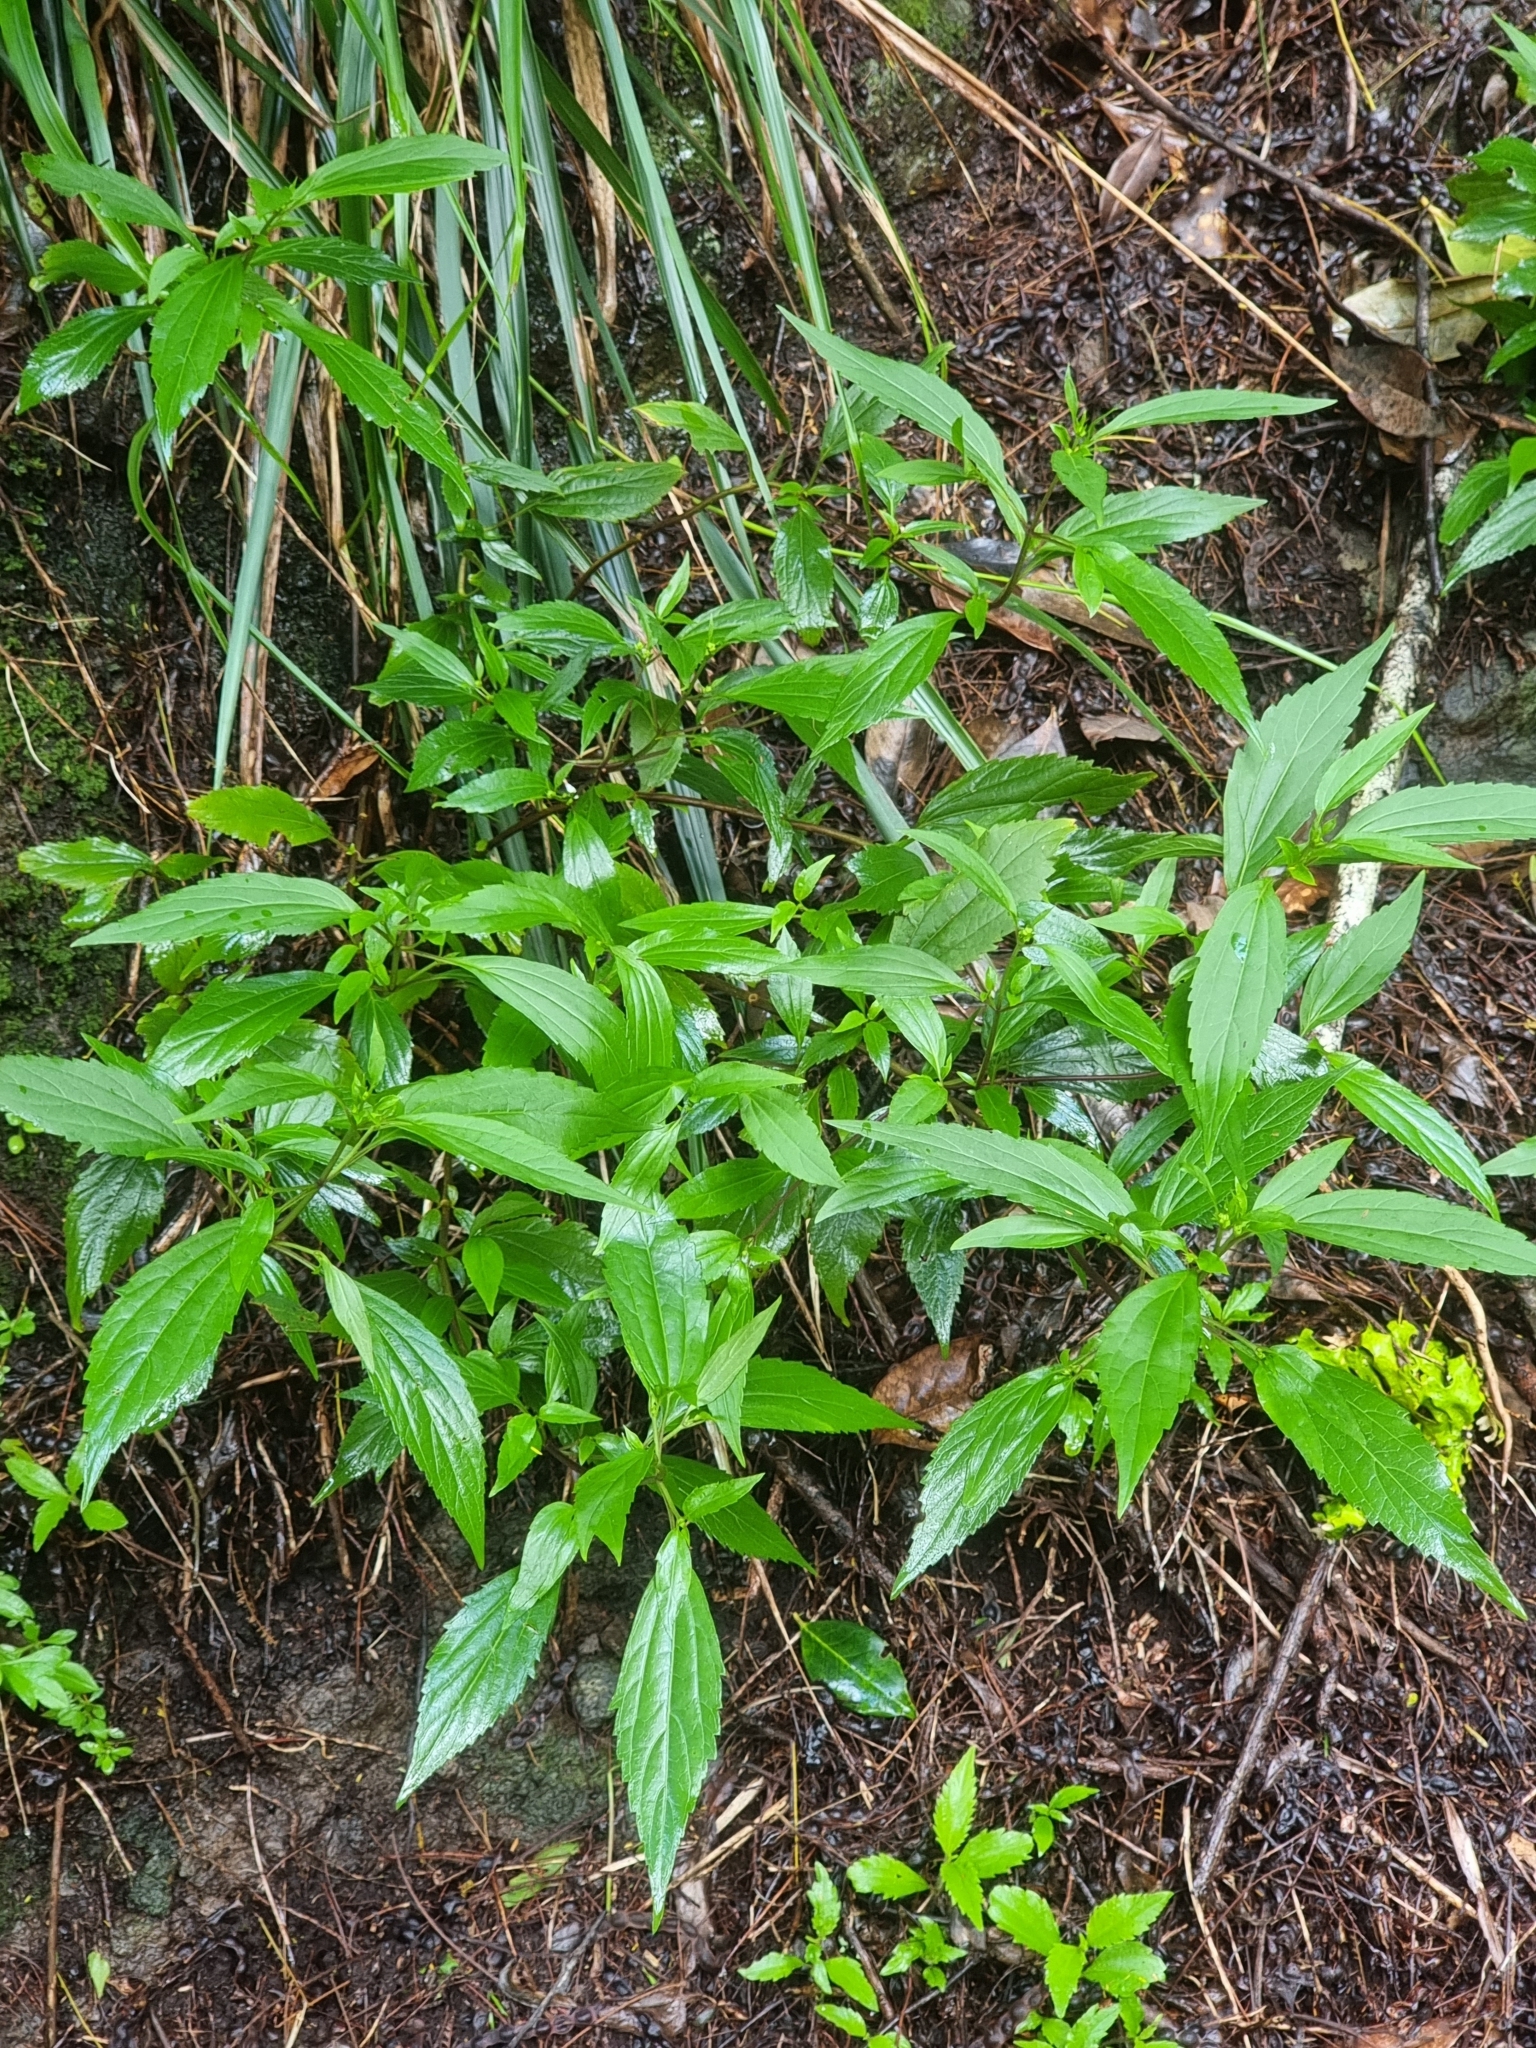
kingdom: Plantae
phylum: Tracheophyta
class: Magnoliopsida
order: Asterales
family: Asteraceae
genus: Ageratina
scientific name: Ageratina riparia
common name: Creeping croftonweed
